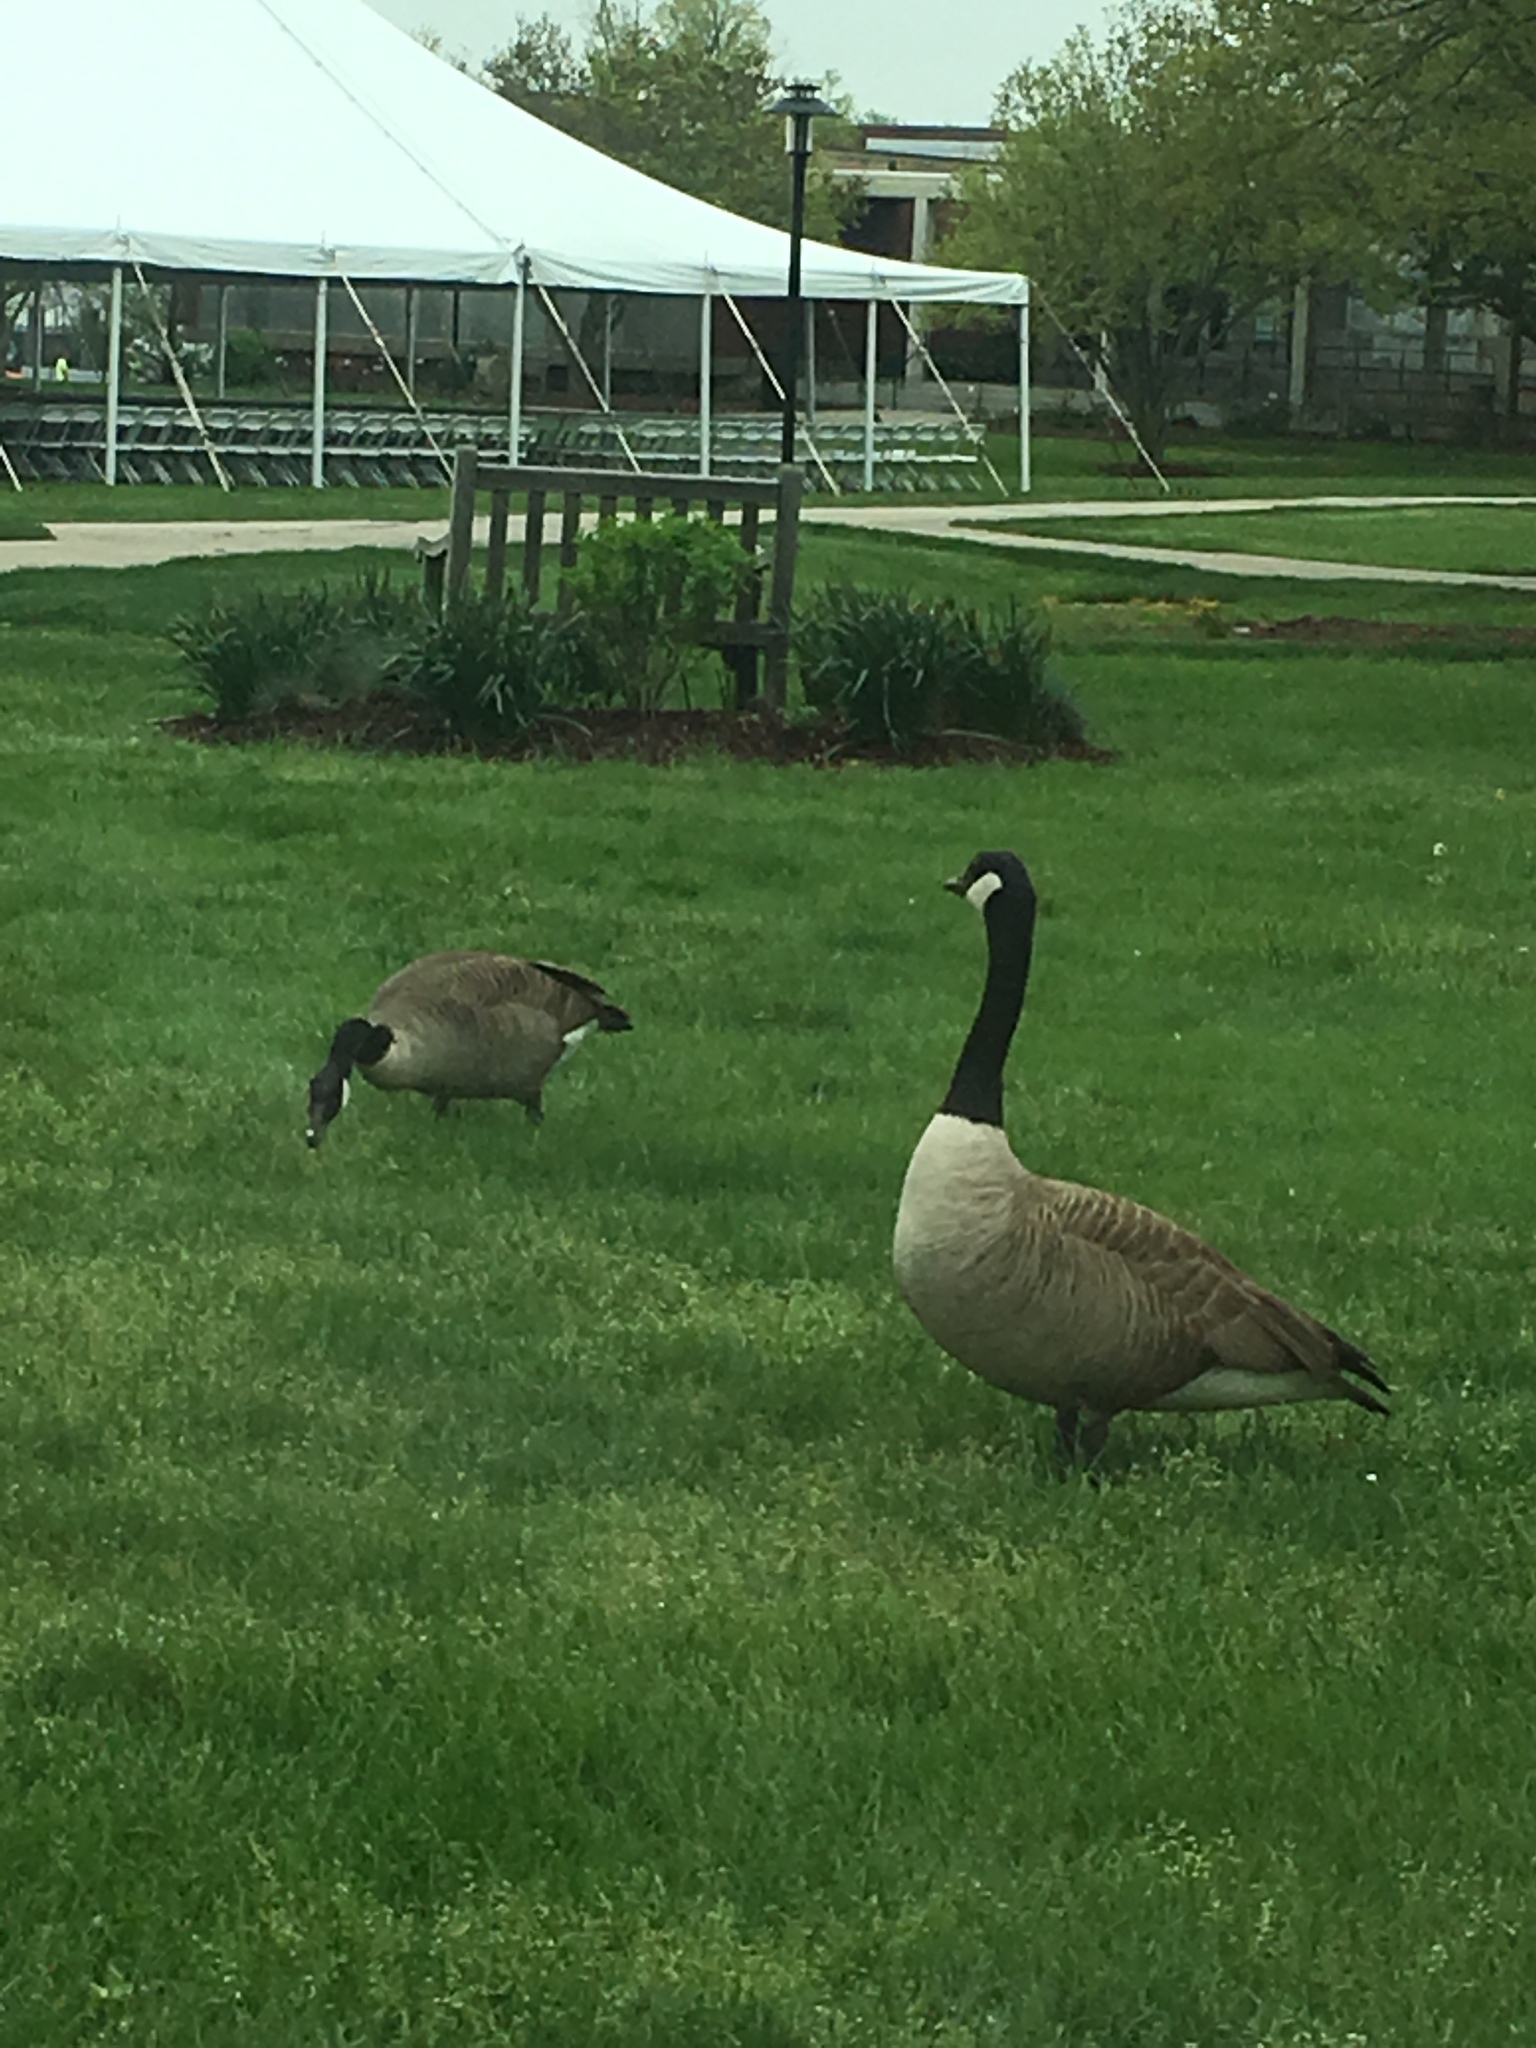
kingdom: Animalia
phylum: Chordata
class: Aves
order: Anseriformes
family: Anatidae
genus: Branta
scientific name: Branta canadensis
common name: Canada goose
